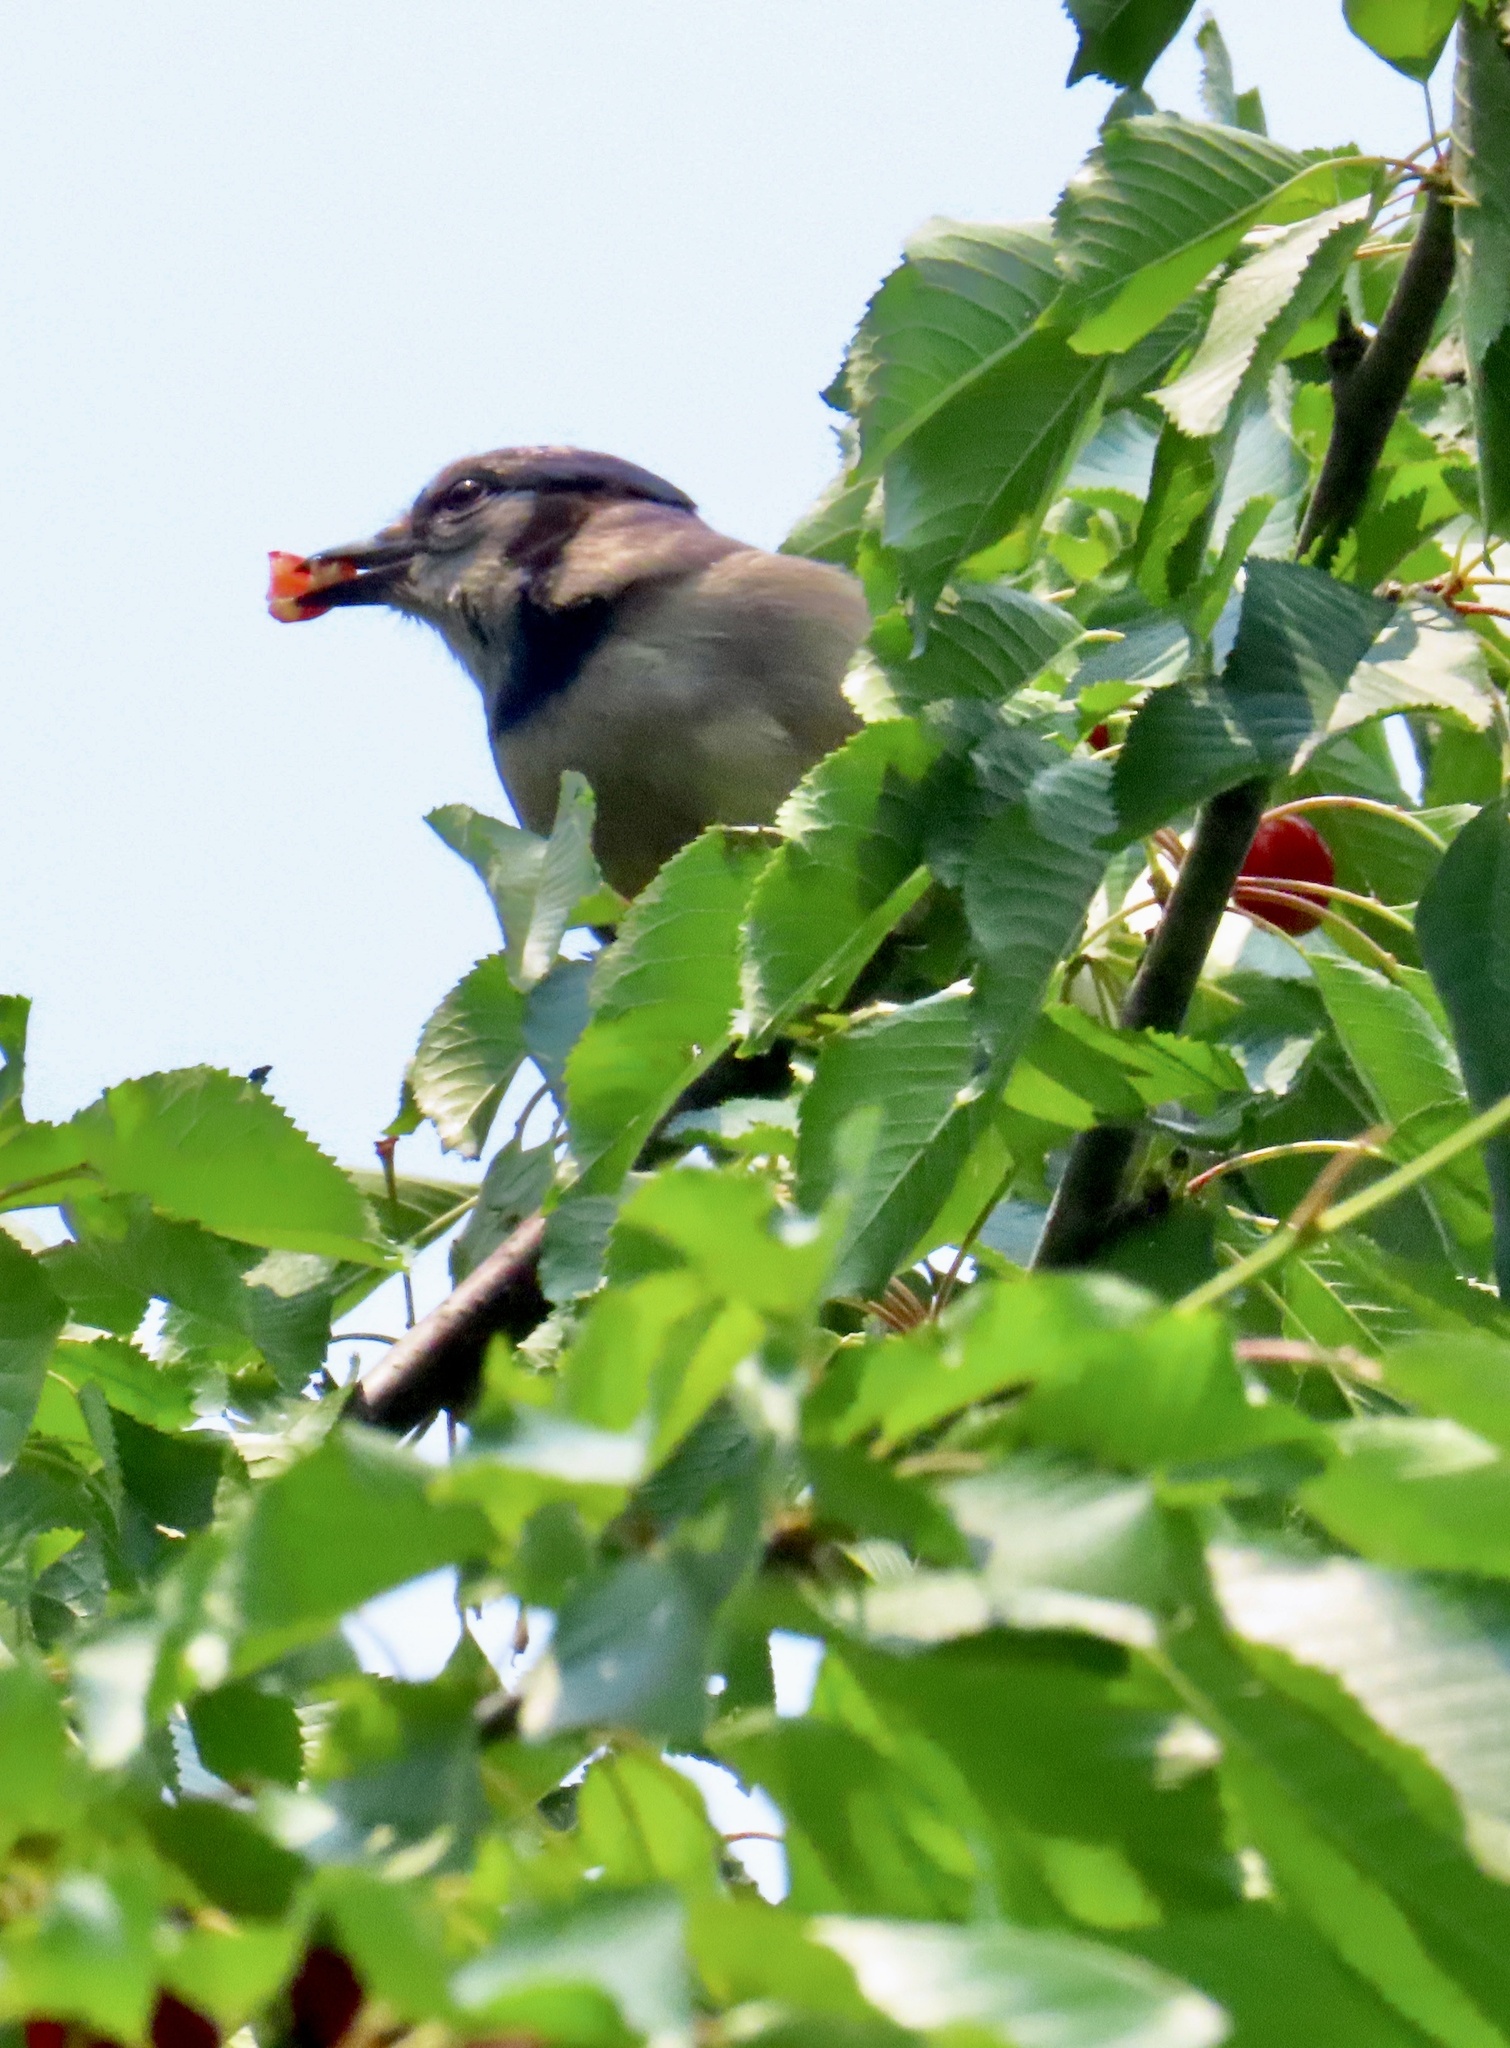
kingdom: Animalia
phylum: Chordata
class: Aves
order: Passeriformes
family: Corvidae
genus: Cyanocitta
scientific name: Cyanocitta cristata
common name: Blue jay
